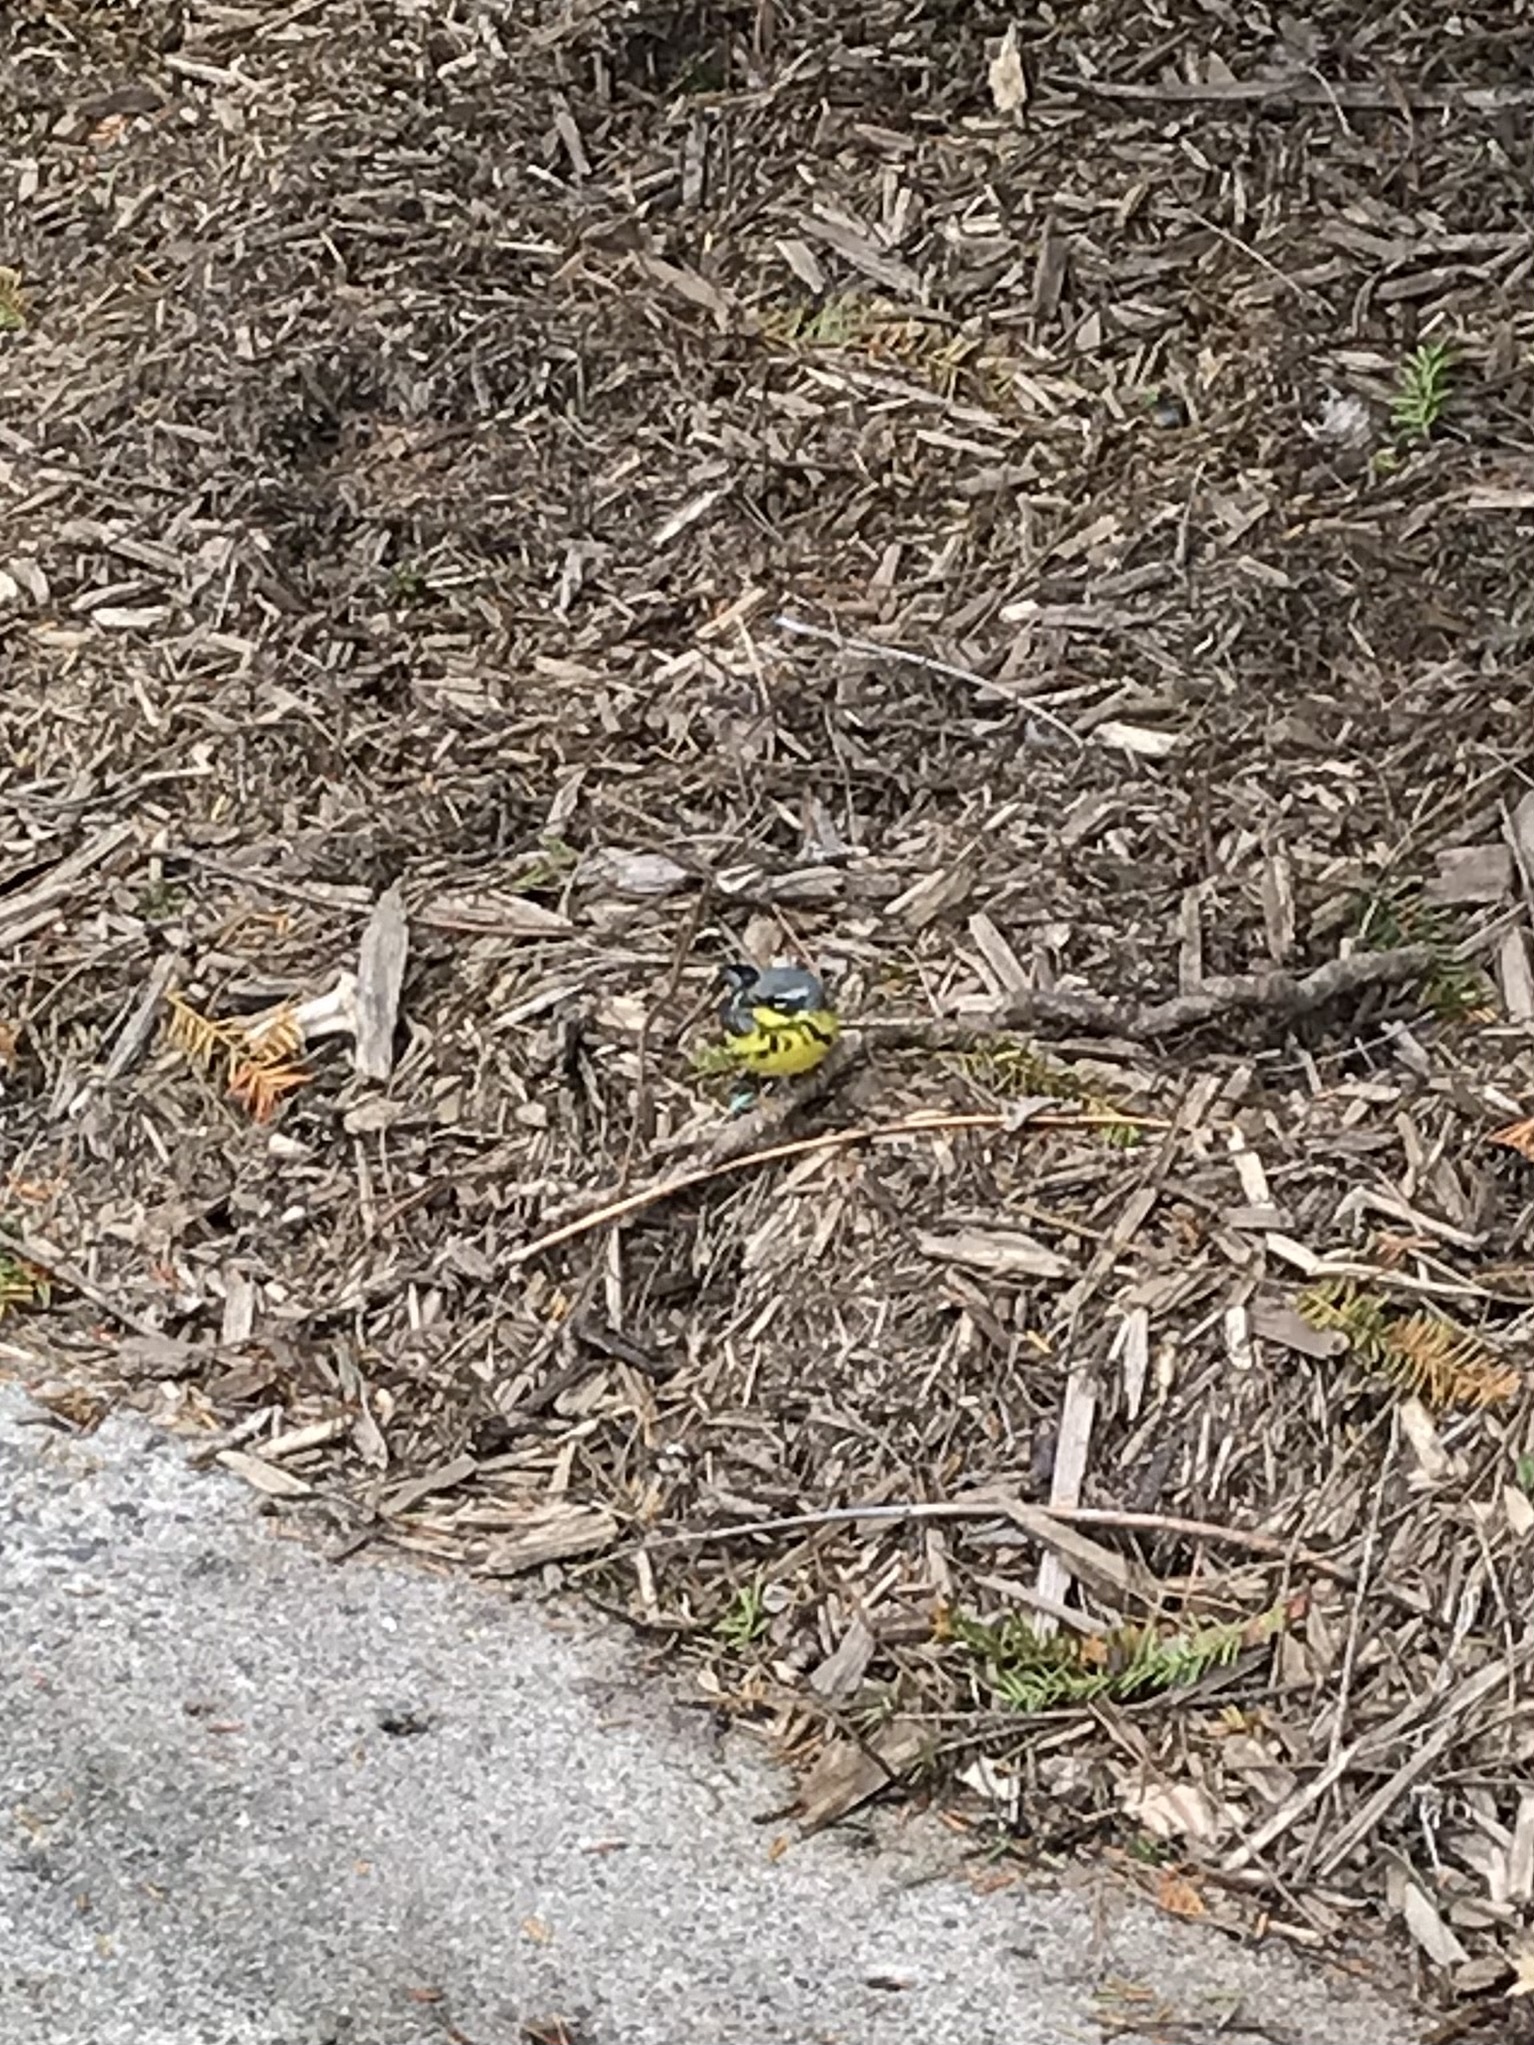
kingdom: Animalia
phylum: Chordata
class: Aves
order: Passeriformes
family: Parulidae
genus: Setophaga
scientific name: Setophaga magnolia
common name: Magnolia warbler
